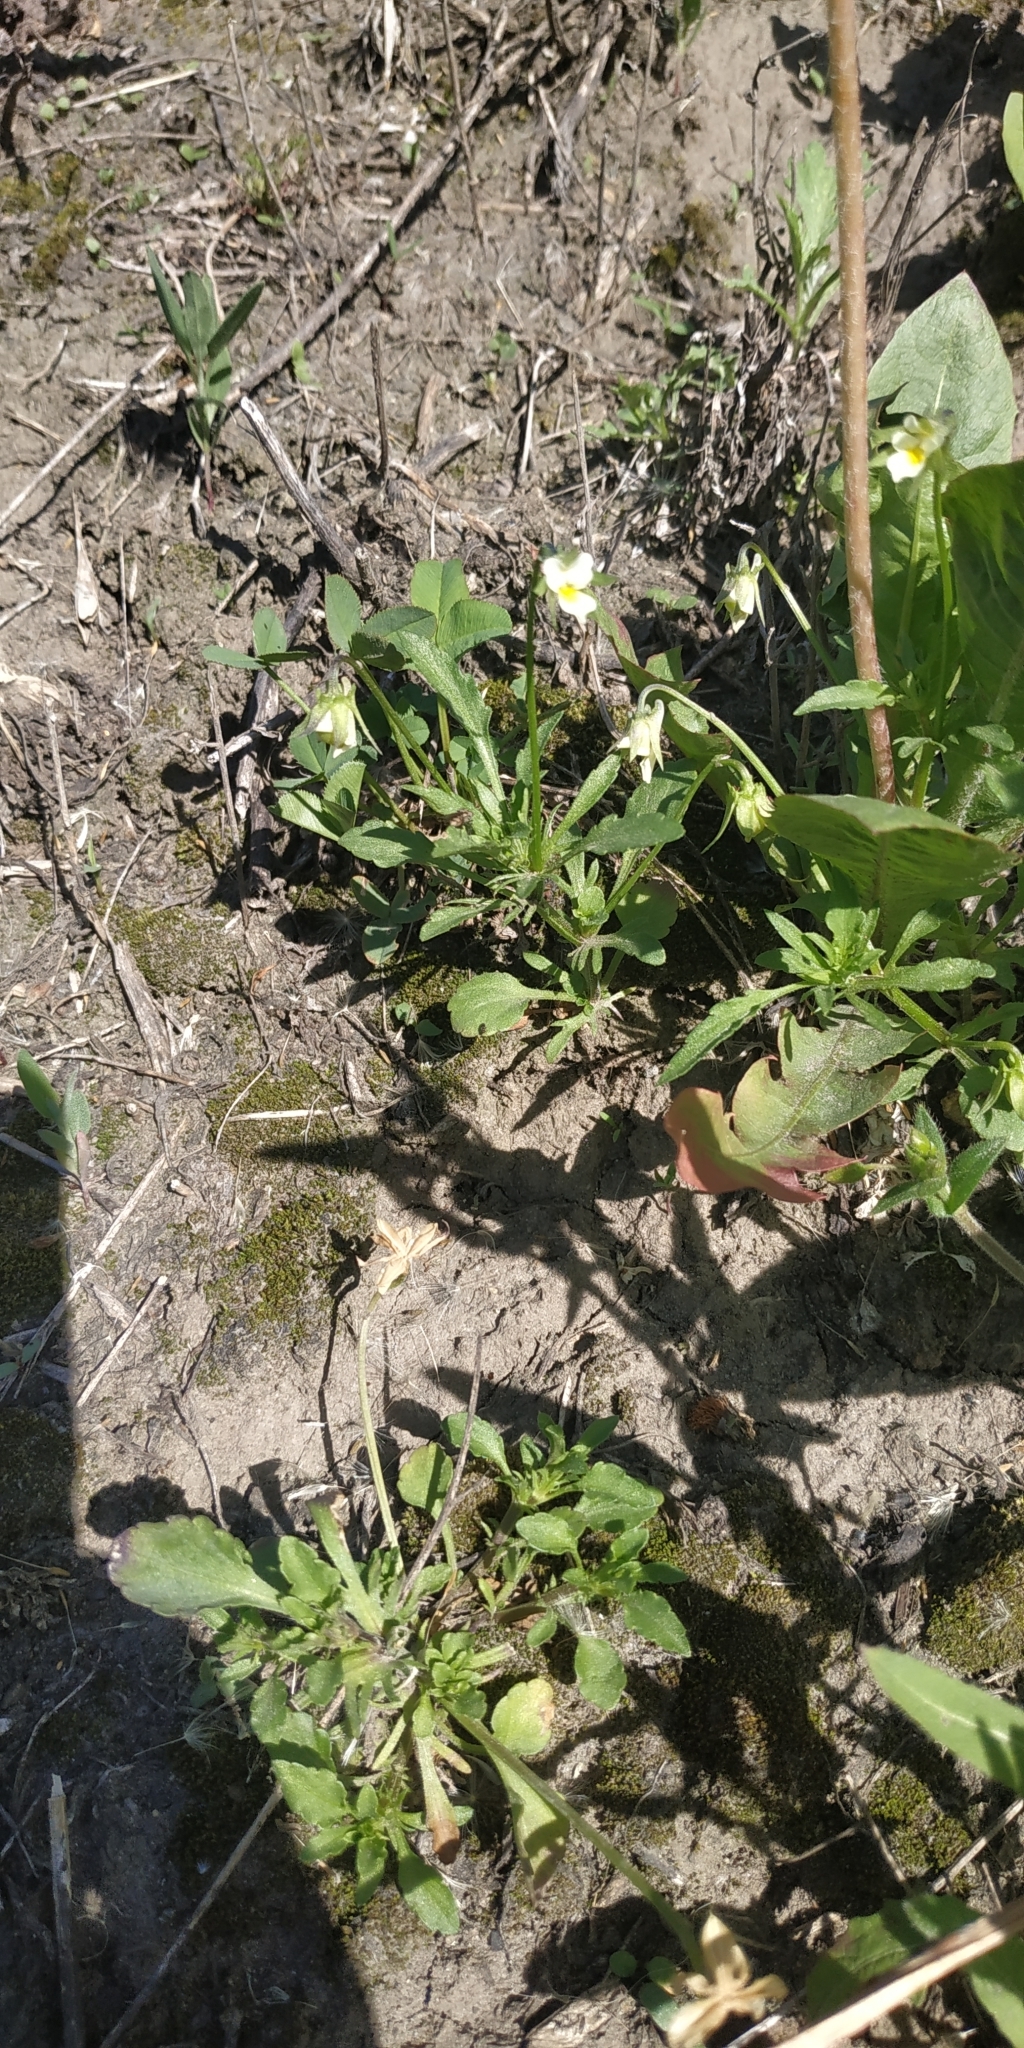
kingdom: Plantae
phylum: Tracheophyta
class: Magnoliopsida
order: Malpighiales
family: Violaceae
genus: Viola
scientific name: Viola arvensis
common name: Field pansy
